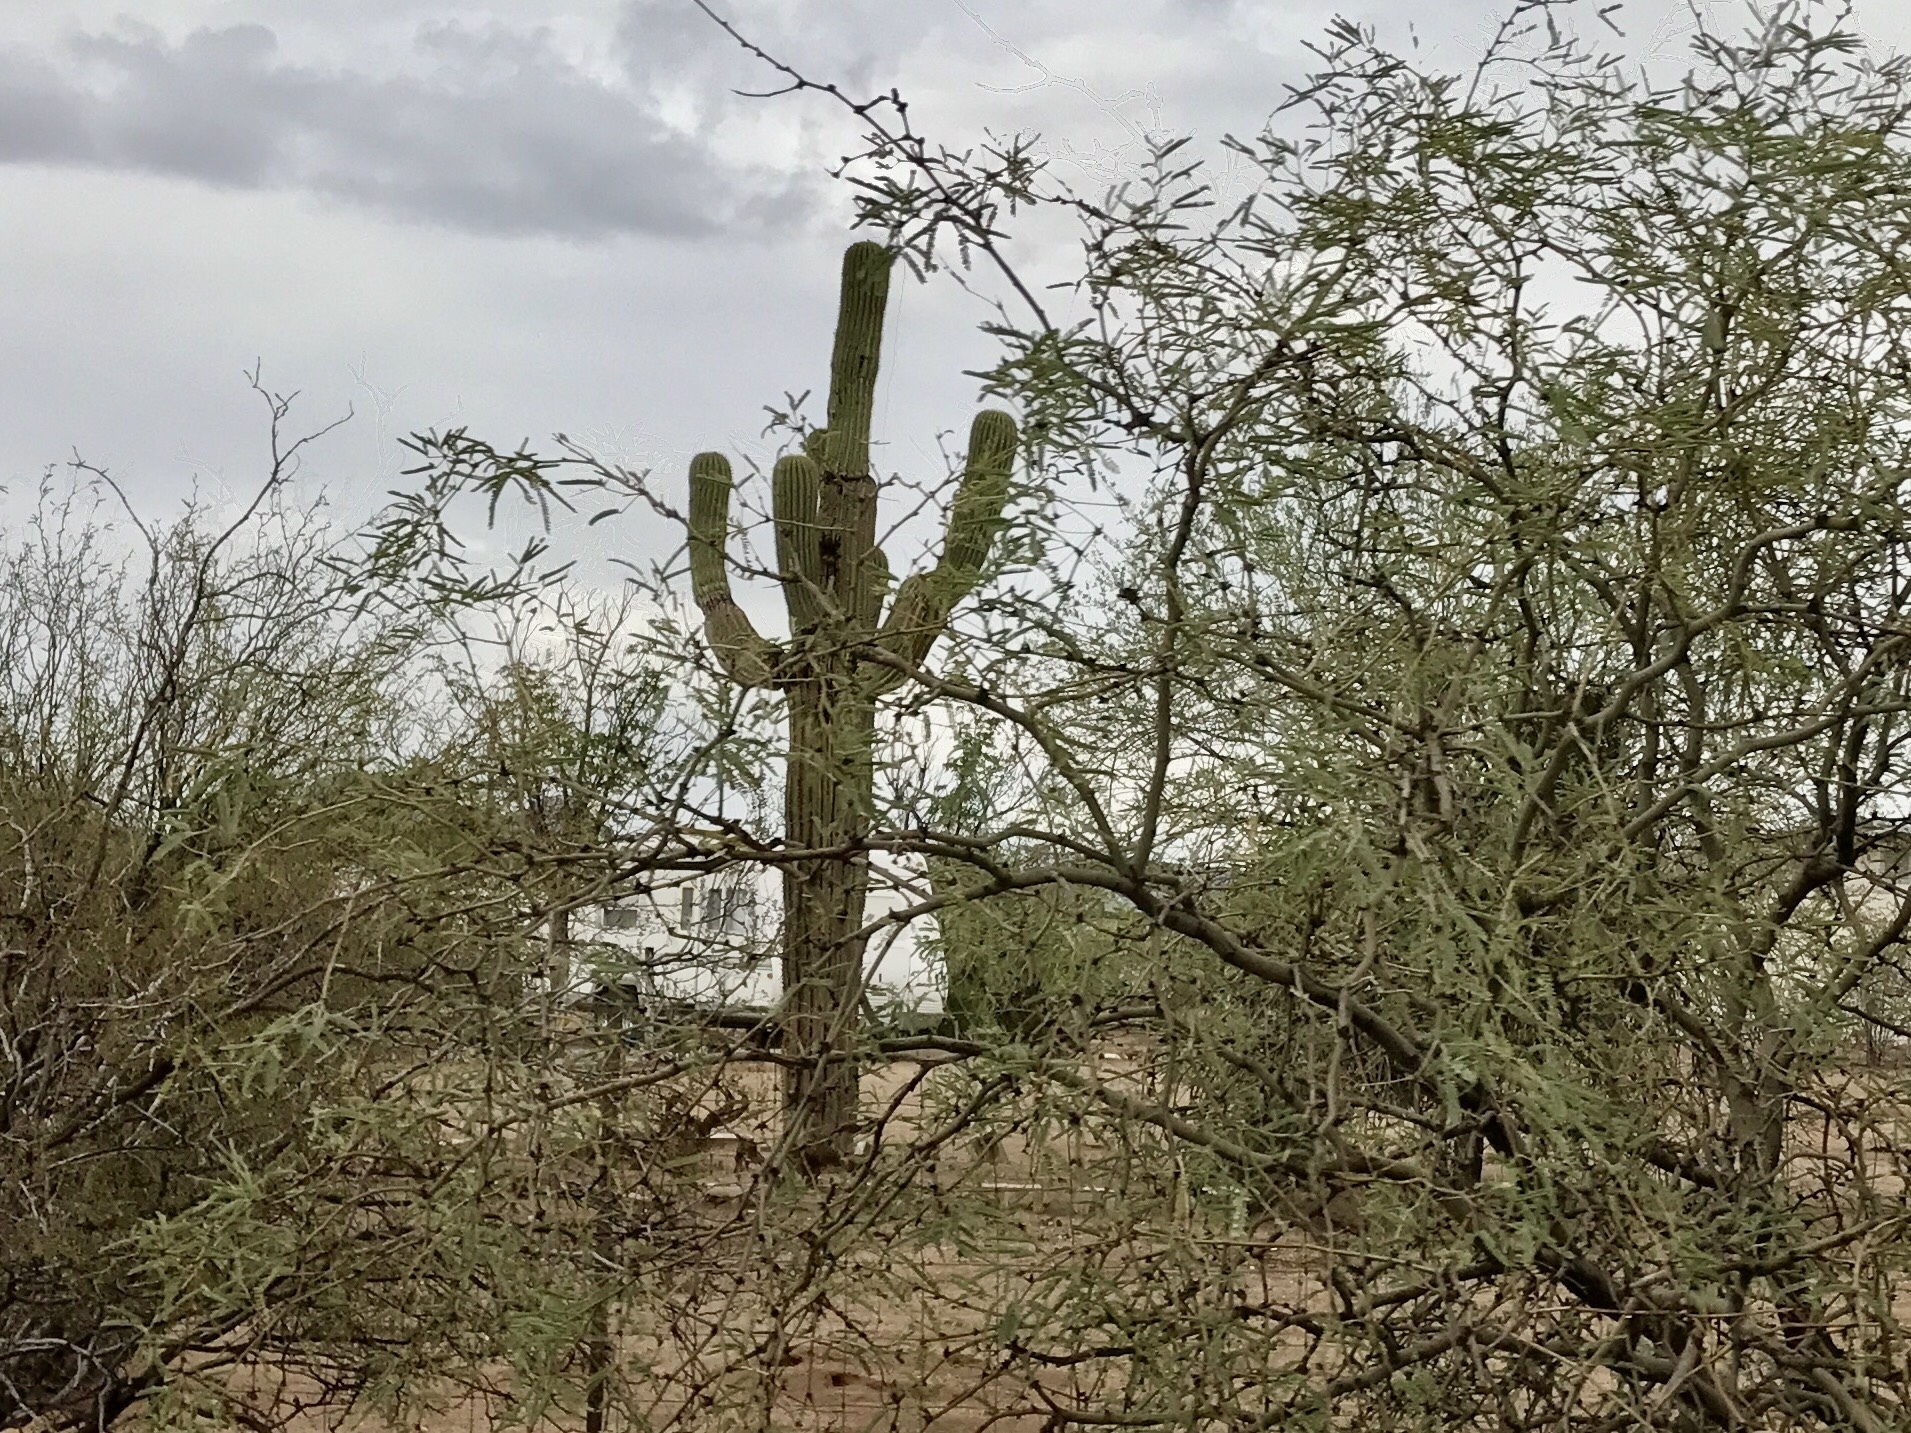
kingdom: Plantae
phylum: Tracheophyta
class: Magnoliopsida
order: Caryophyllales
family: Cactaceae
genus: Carnegiea
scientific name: Carnegiea gigantea
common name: Saguaro
